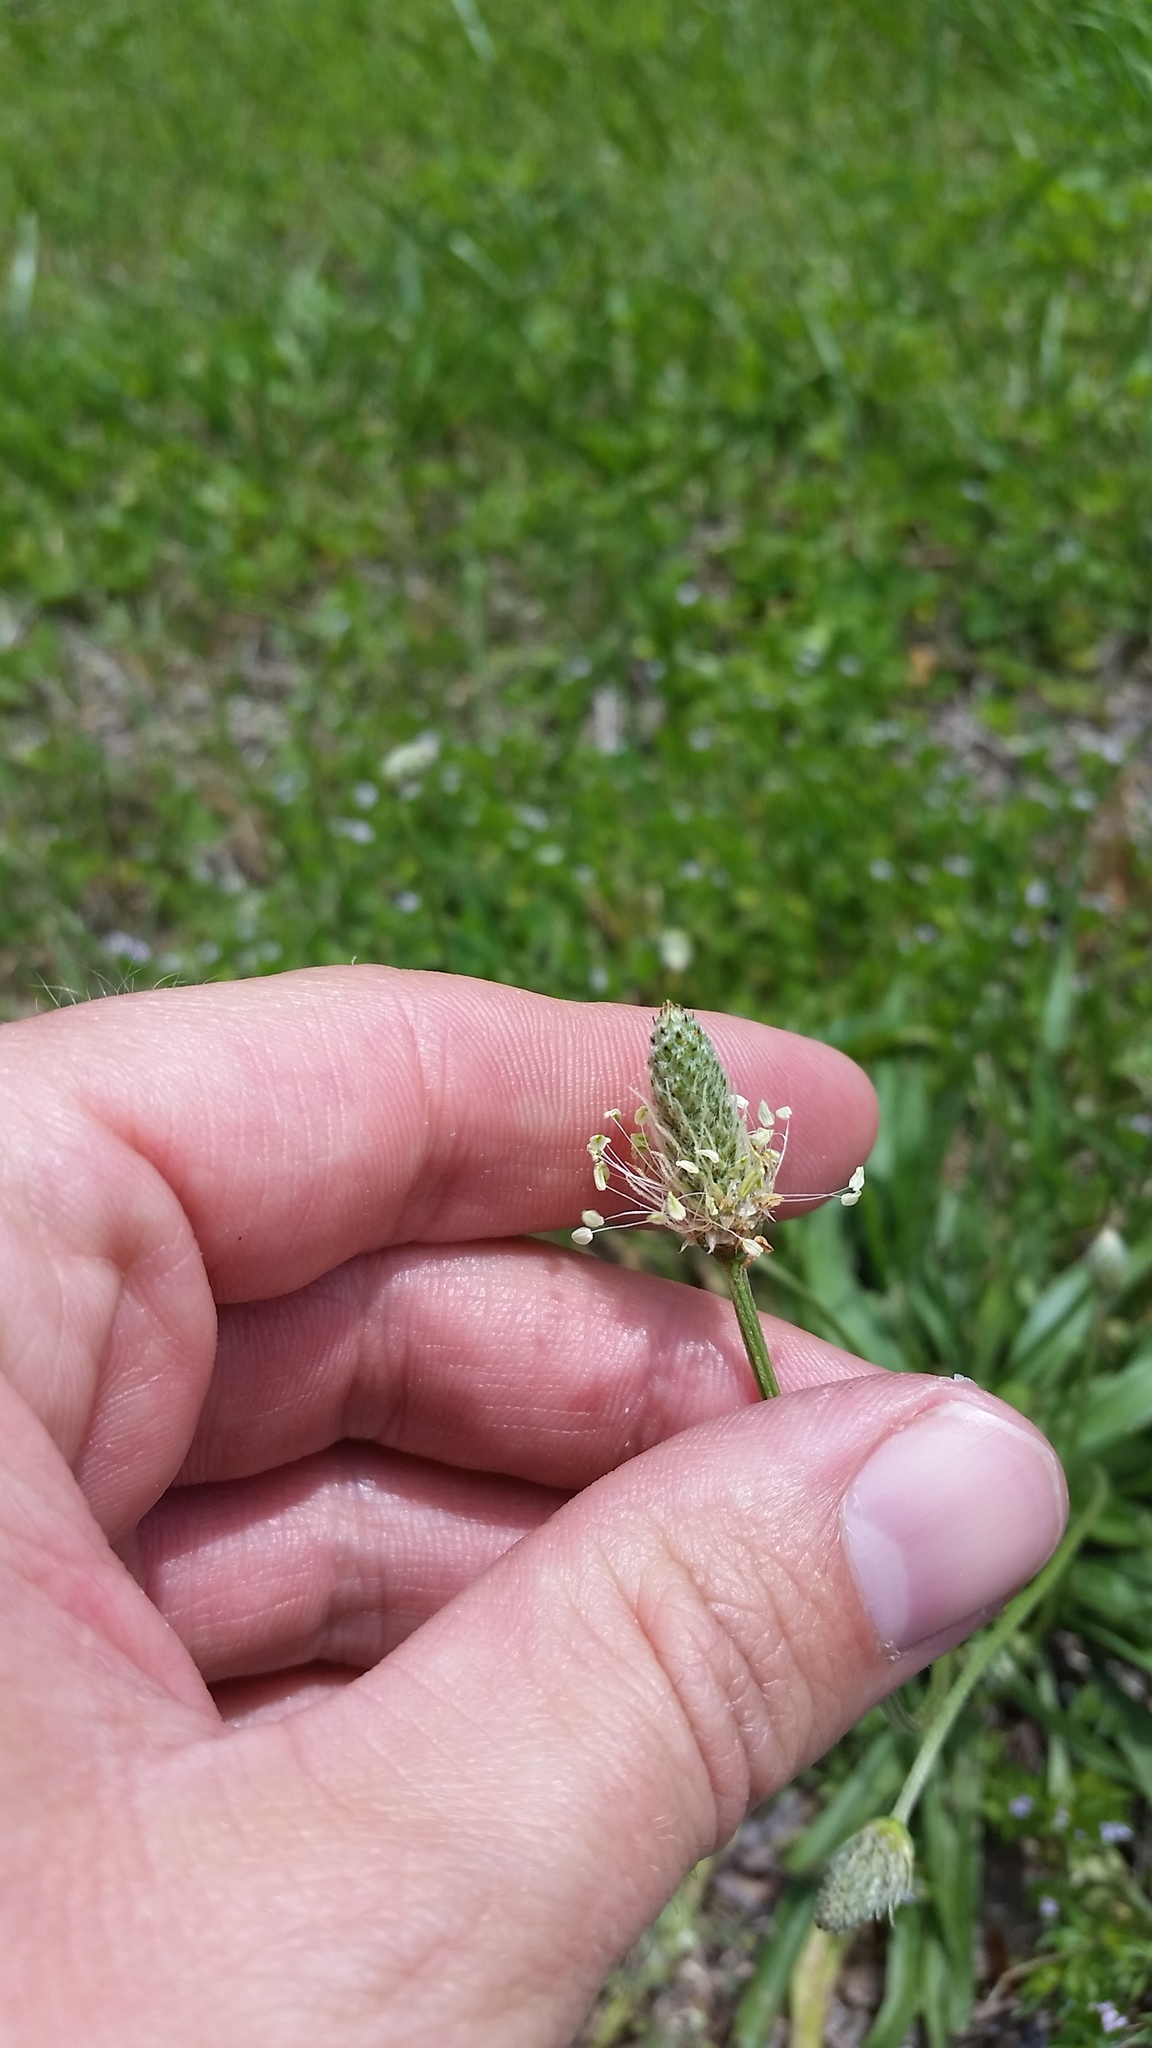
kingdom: Plantae
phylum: Tracheophyta
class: Magnoliopsida
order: Lamiales
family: Plantaginaceae
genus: Plantago
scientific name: Plantago lanceolata
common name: Ribwort plantain
